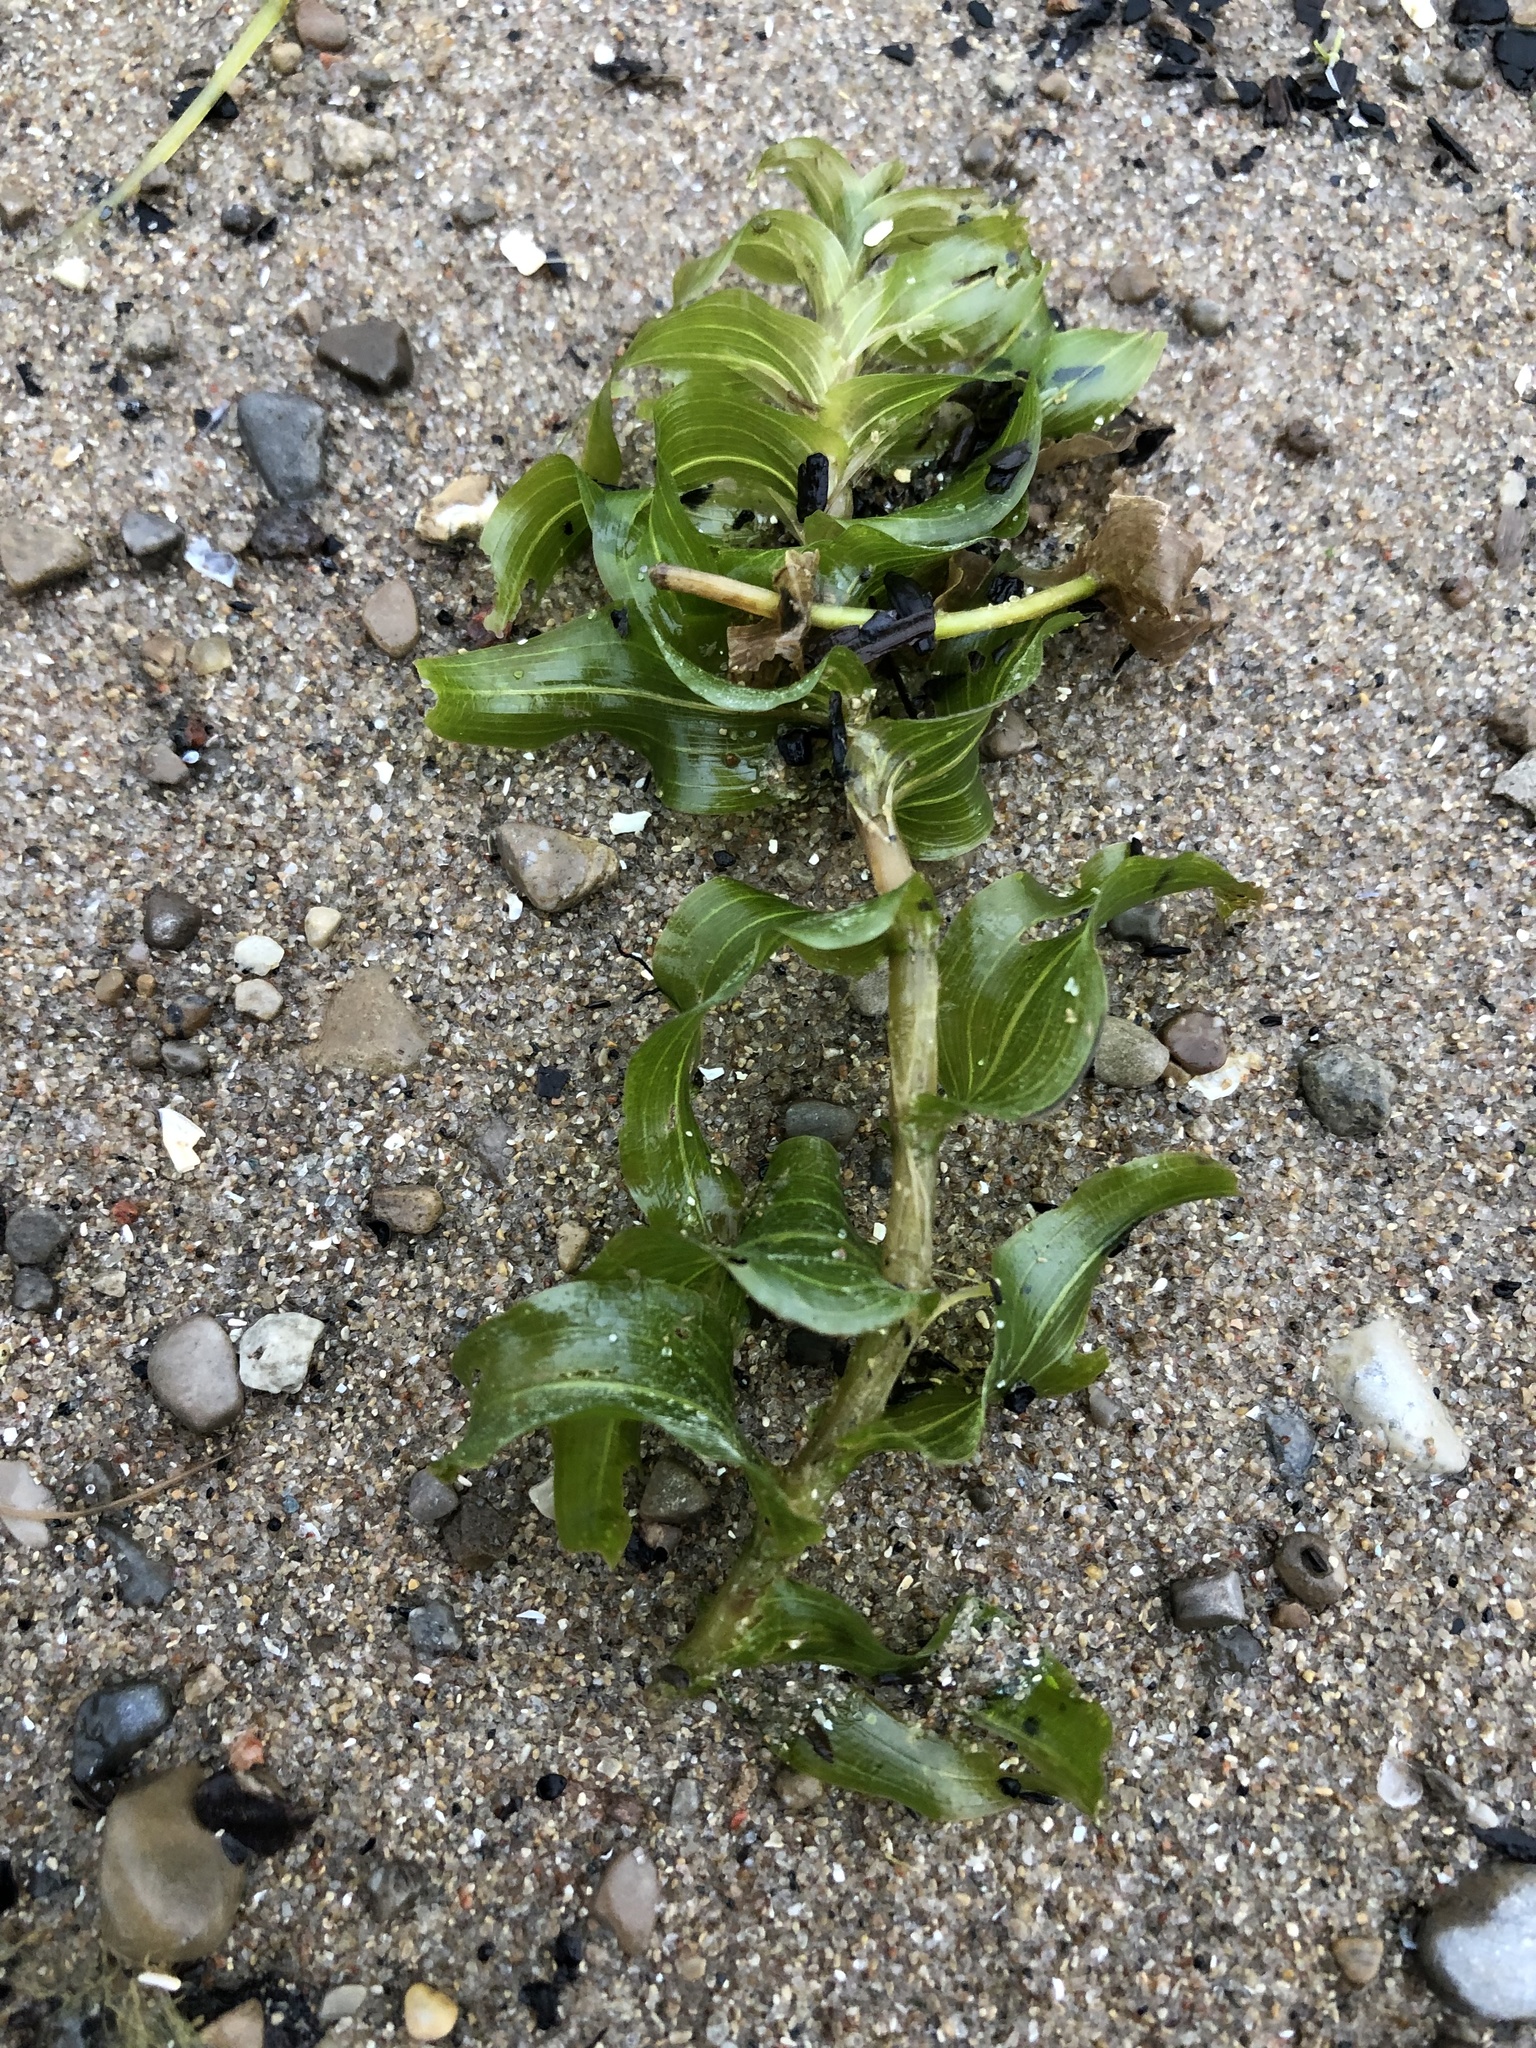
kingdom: Plantae
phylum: Tracheophyta
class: Liliopsida
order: Alismatales
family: Potamogetonaceae
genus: Potamogeton
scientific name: Potamogeton richardsonii
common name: Richardson's pondweed
